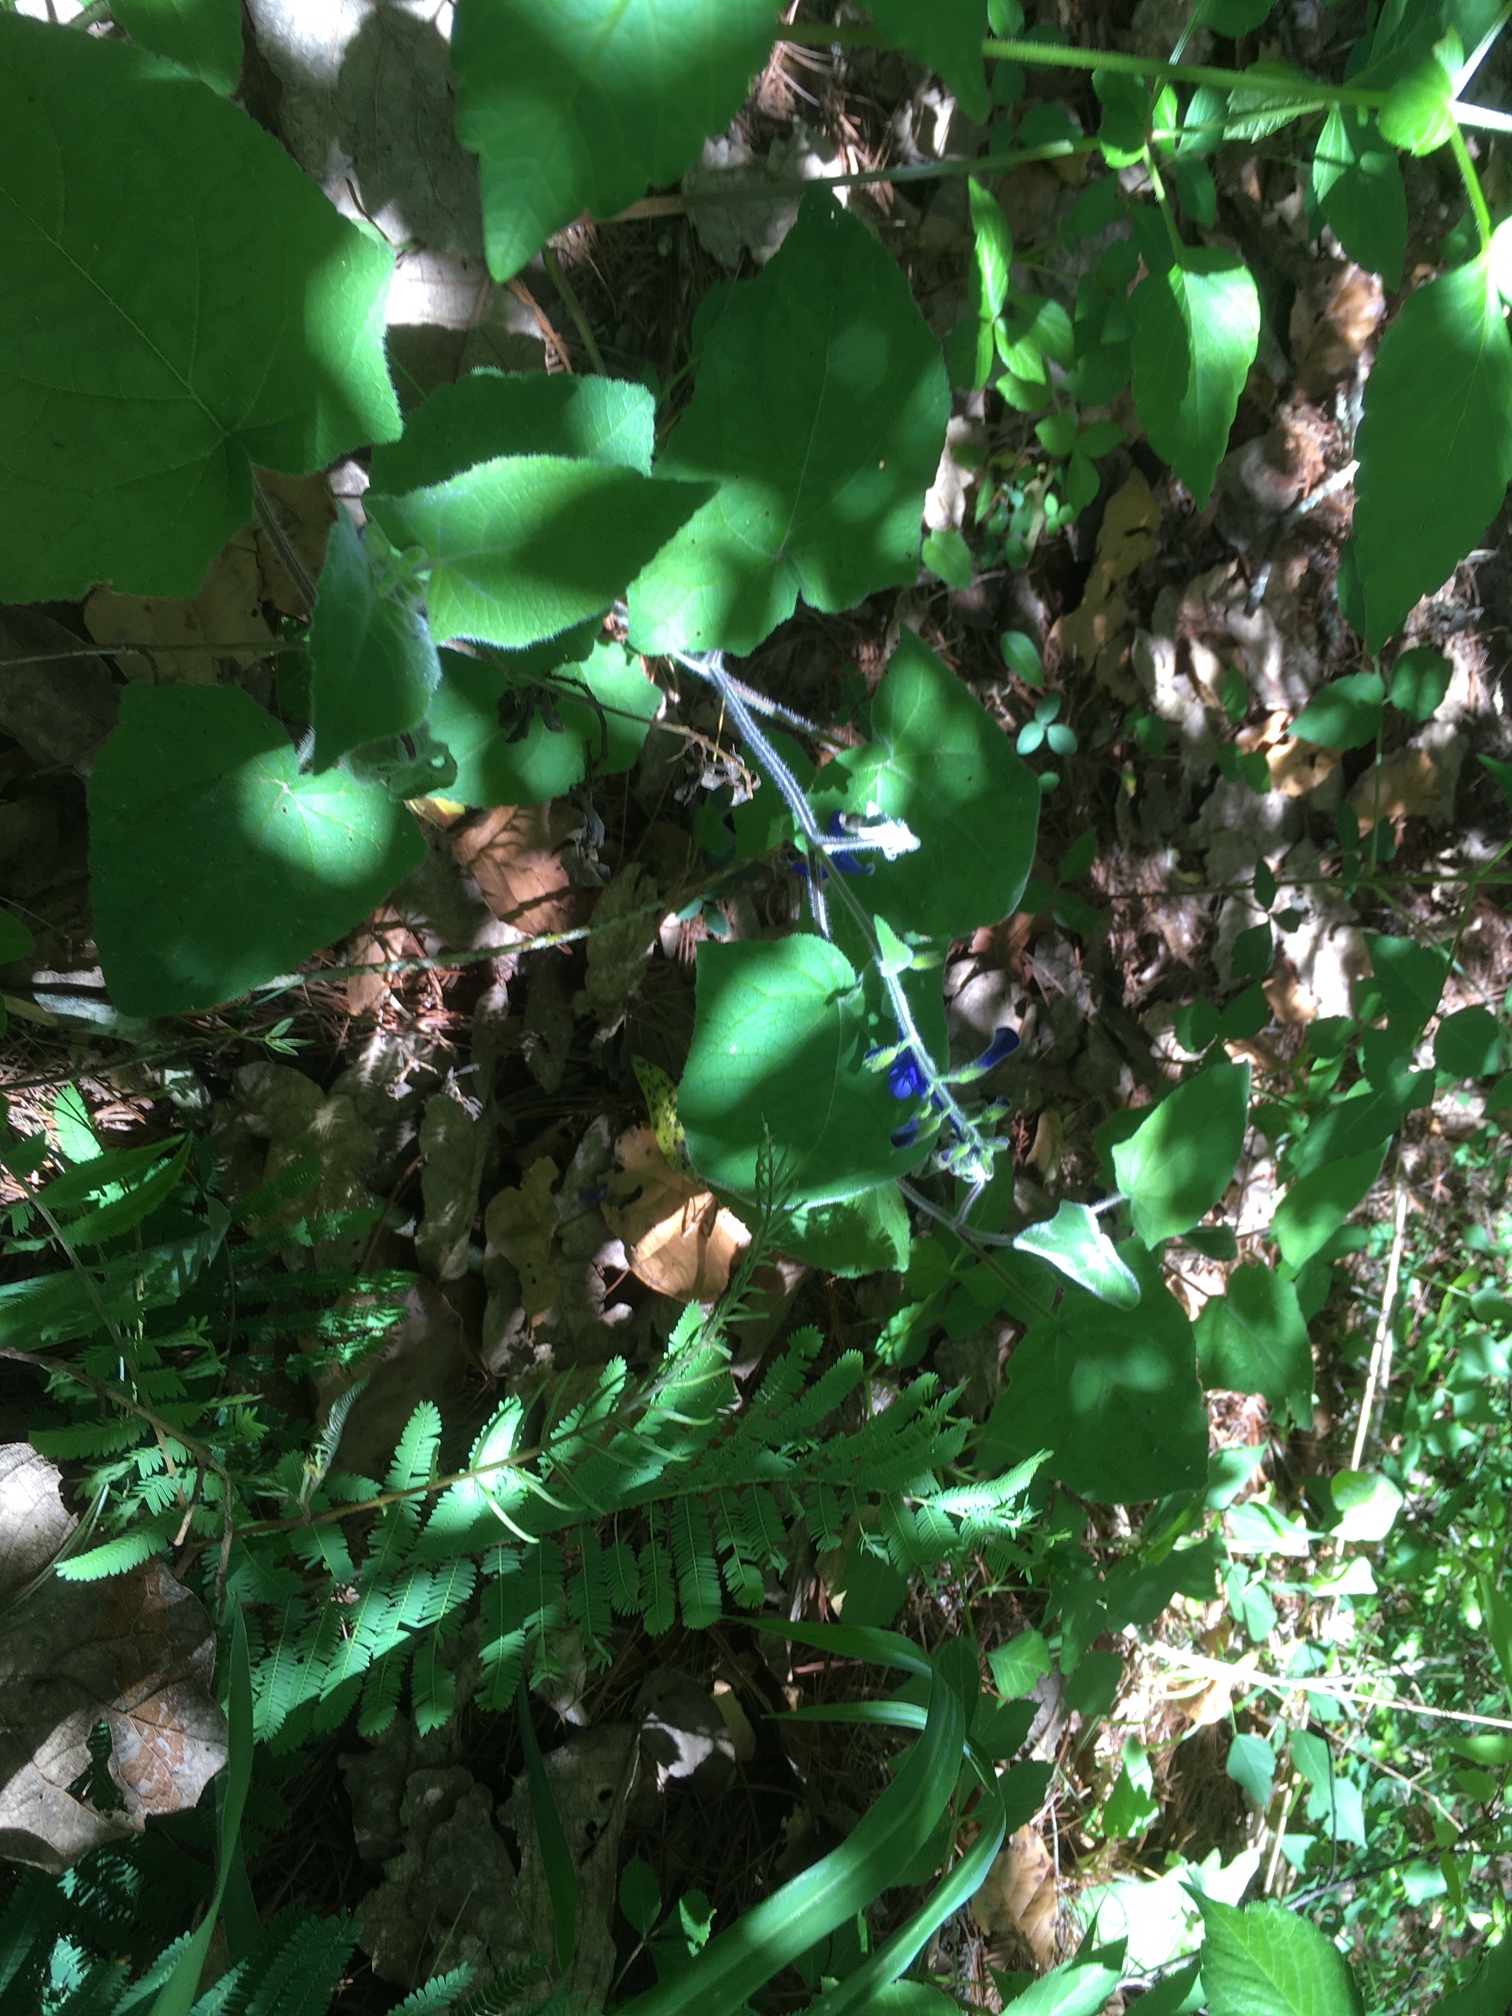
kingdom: Plantae
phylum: Tracheophyta
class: Magnoliopsida
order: Lamiales
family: Lamiaceae
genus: Salvia
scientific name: Salvia patens
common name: Blue sage
